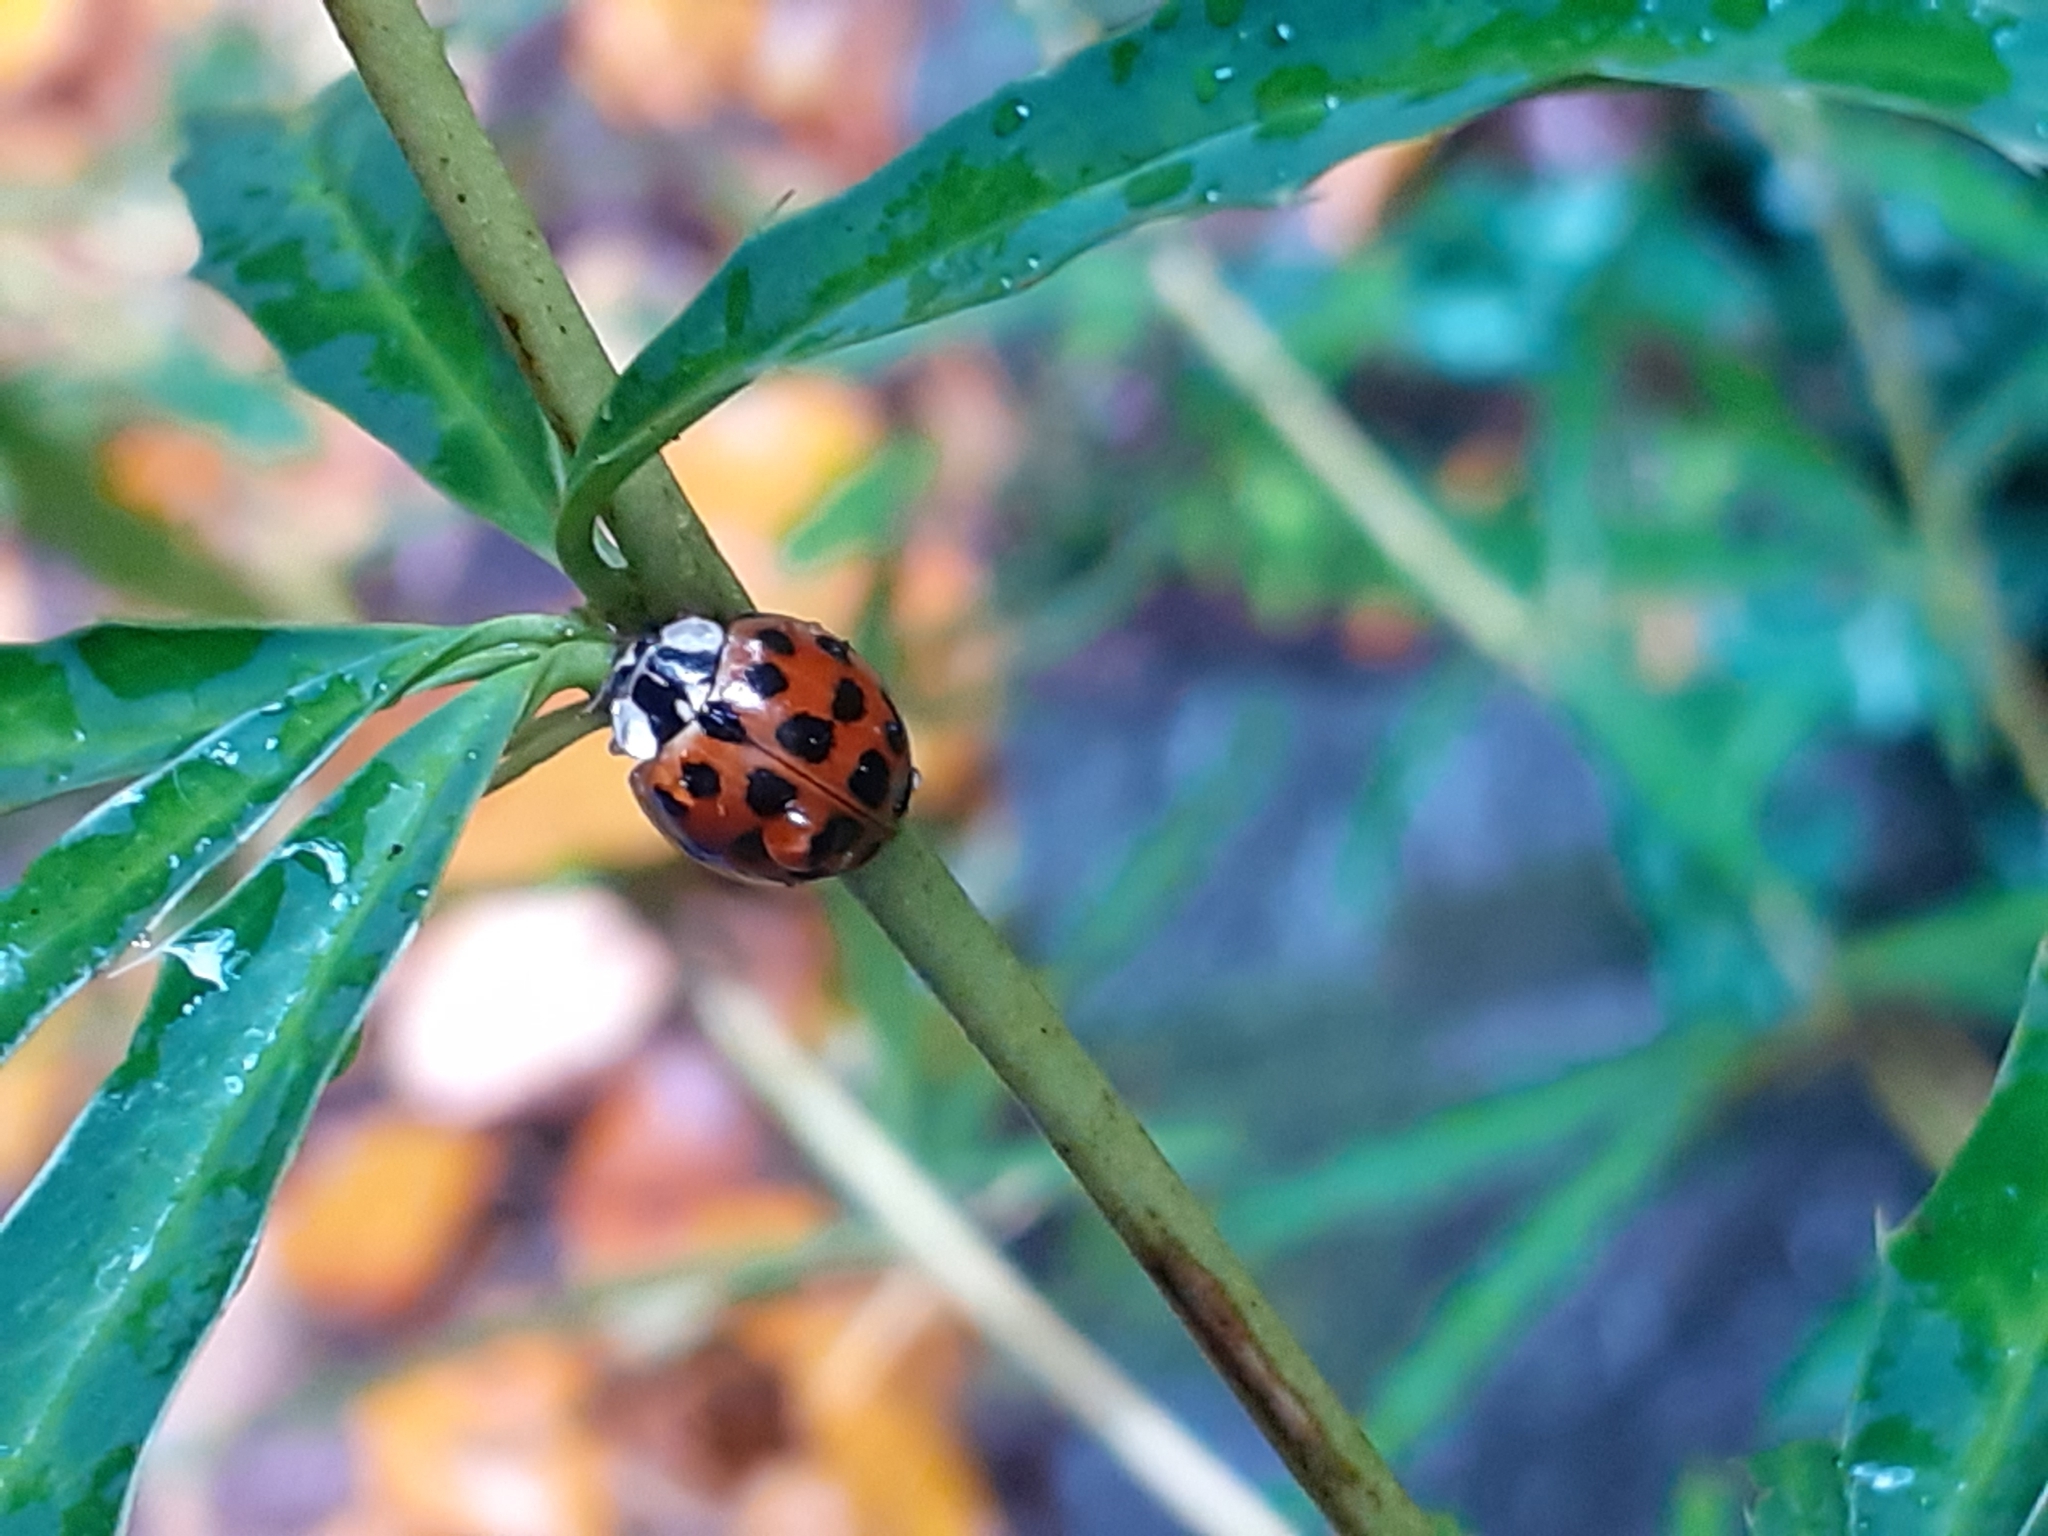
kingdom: Animalia
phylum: Arthropoda
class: Insecta
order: Coleoptera
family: Coccinellidae
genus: Harmonia
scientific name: Harmonia axyridis
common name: Harlequin ladybird
